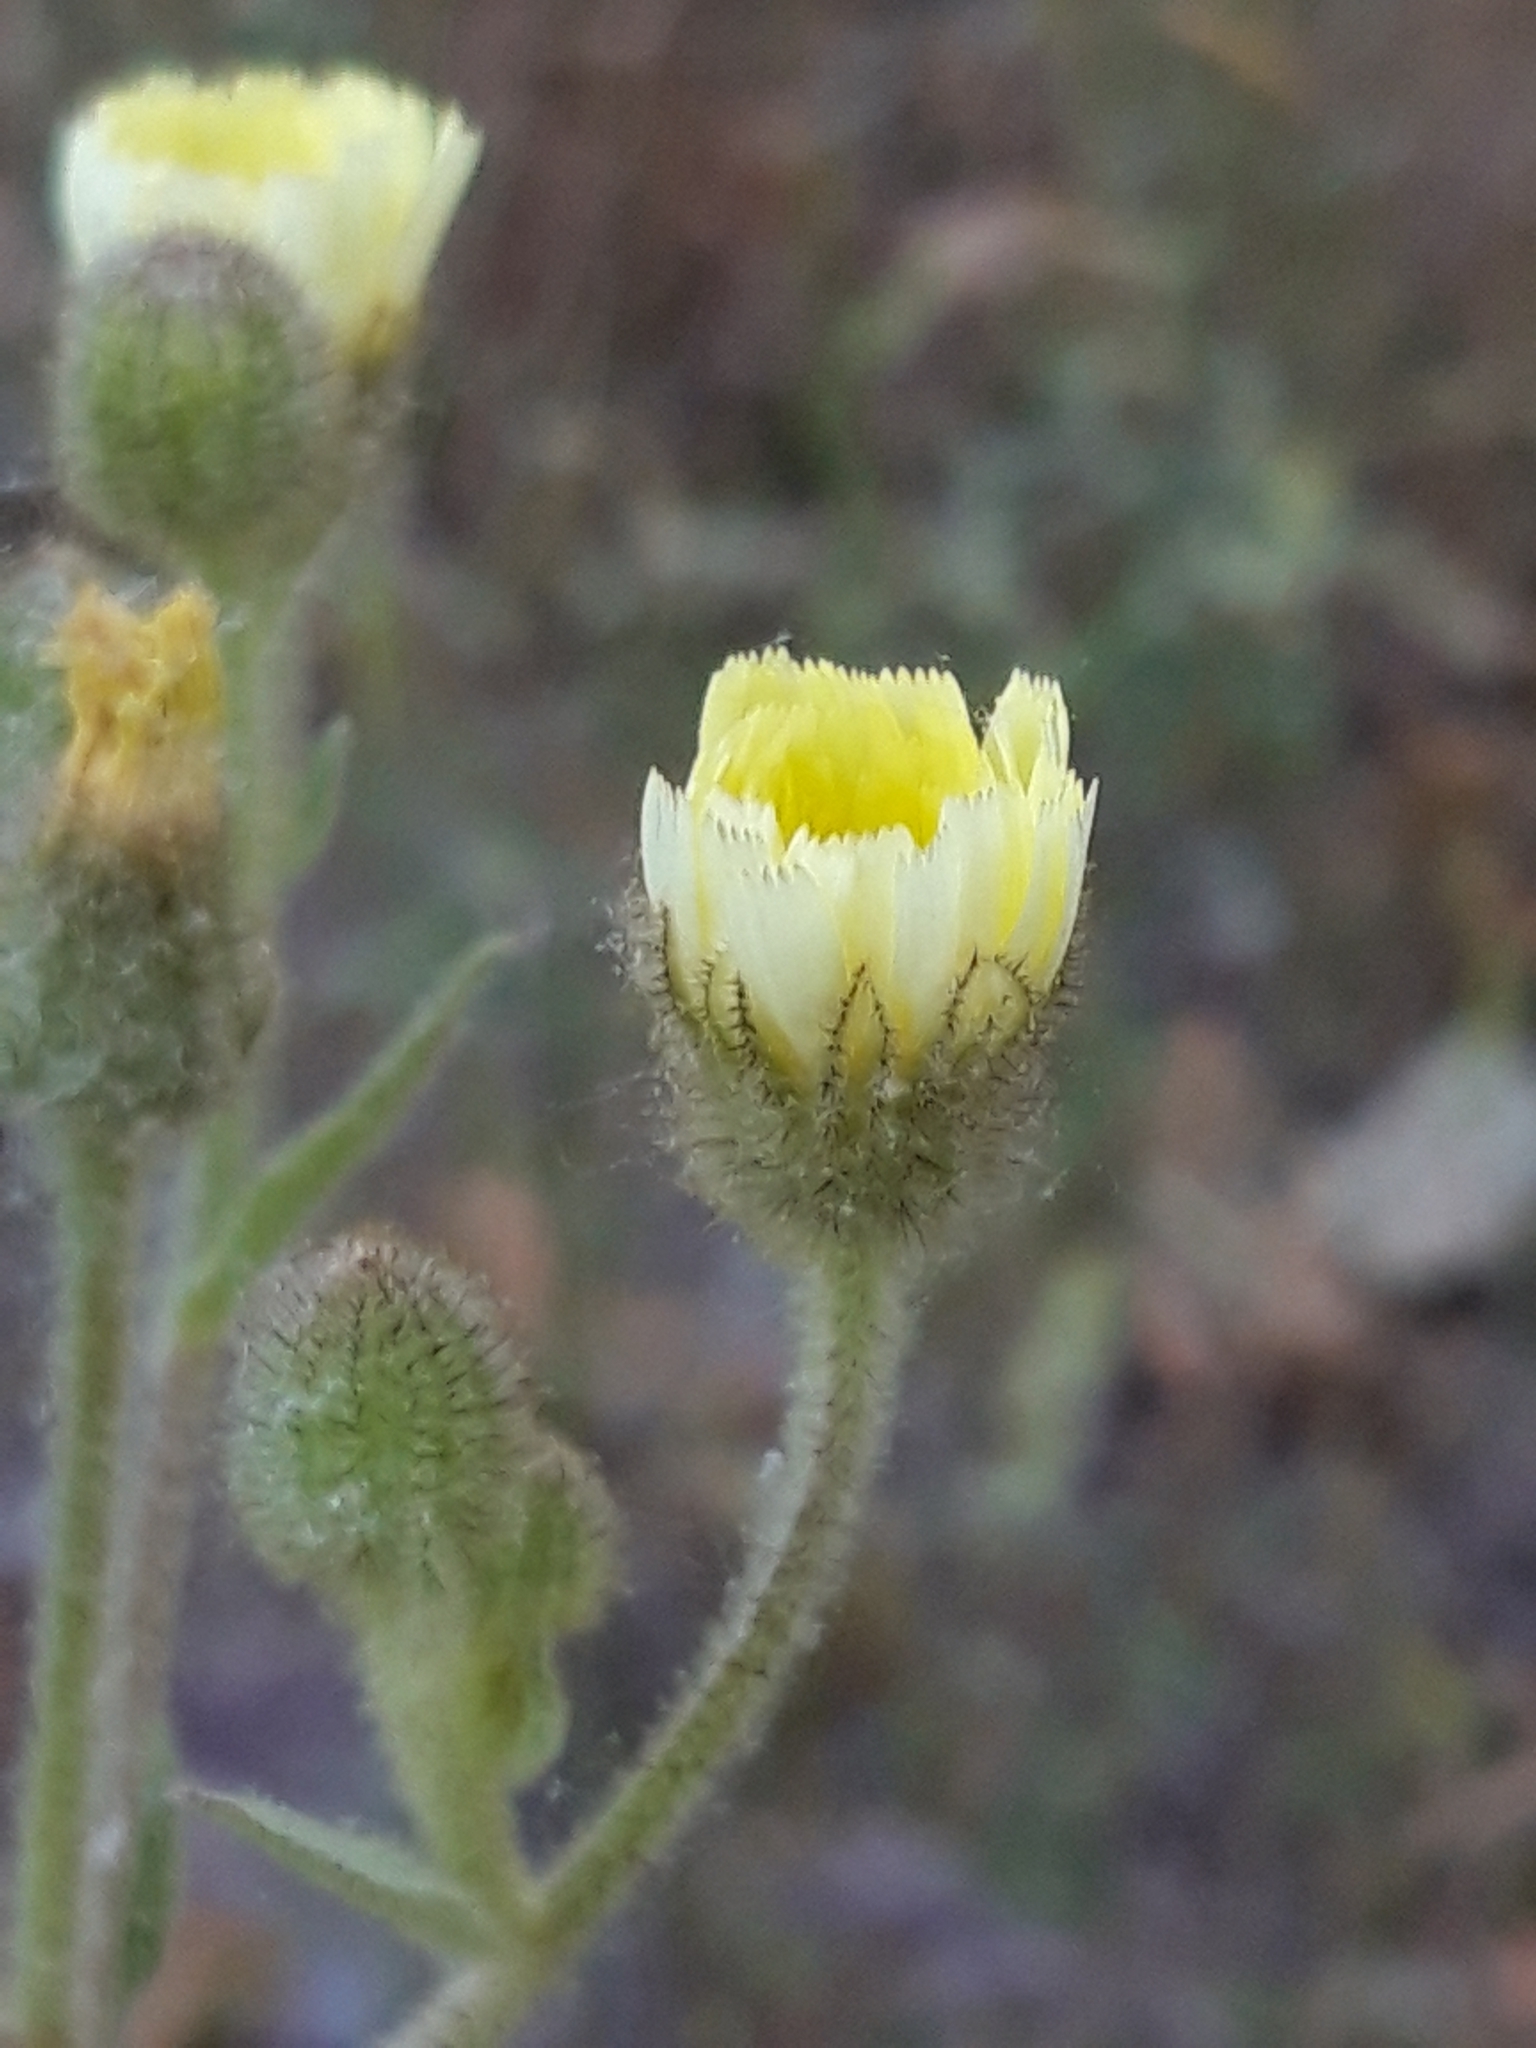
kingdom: Plantae
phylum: Tracheophyta
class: Magnoliopsida
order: Asterales
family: Asteraceae
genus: Andryala
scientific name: Andryala integrifolia
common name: Common andryala
